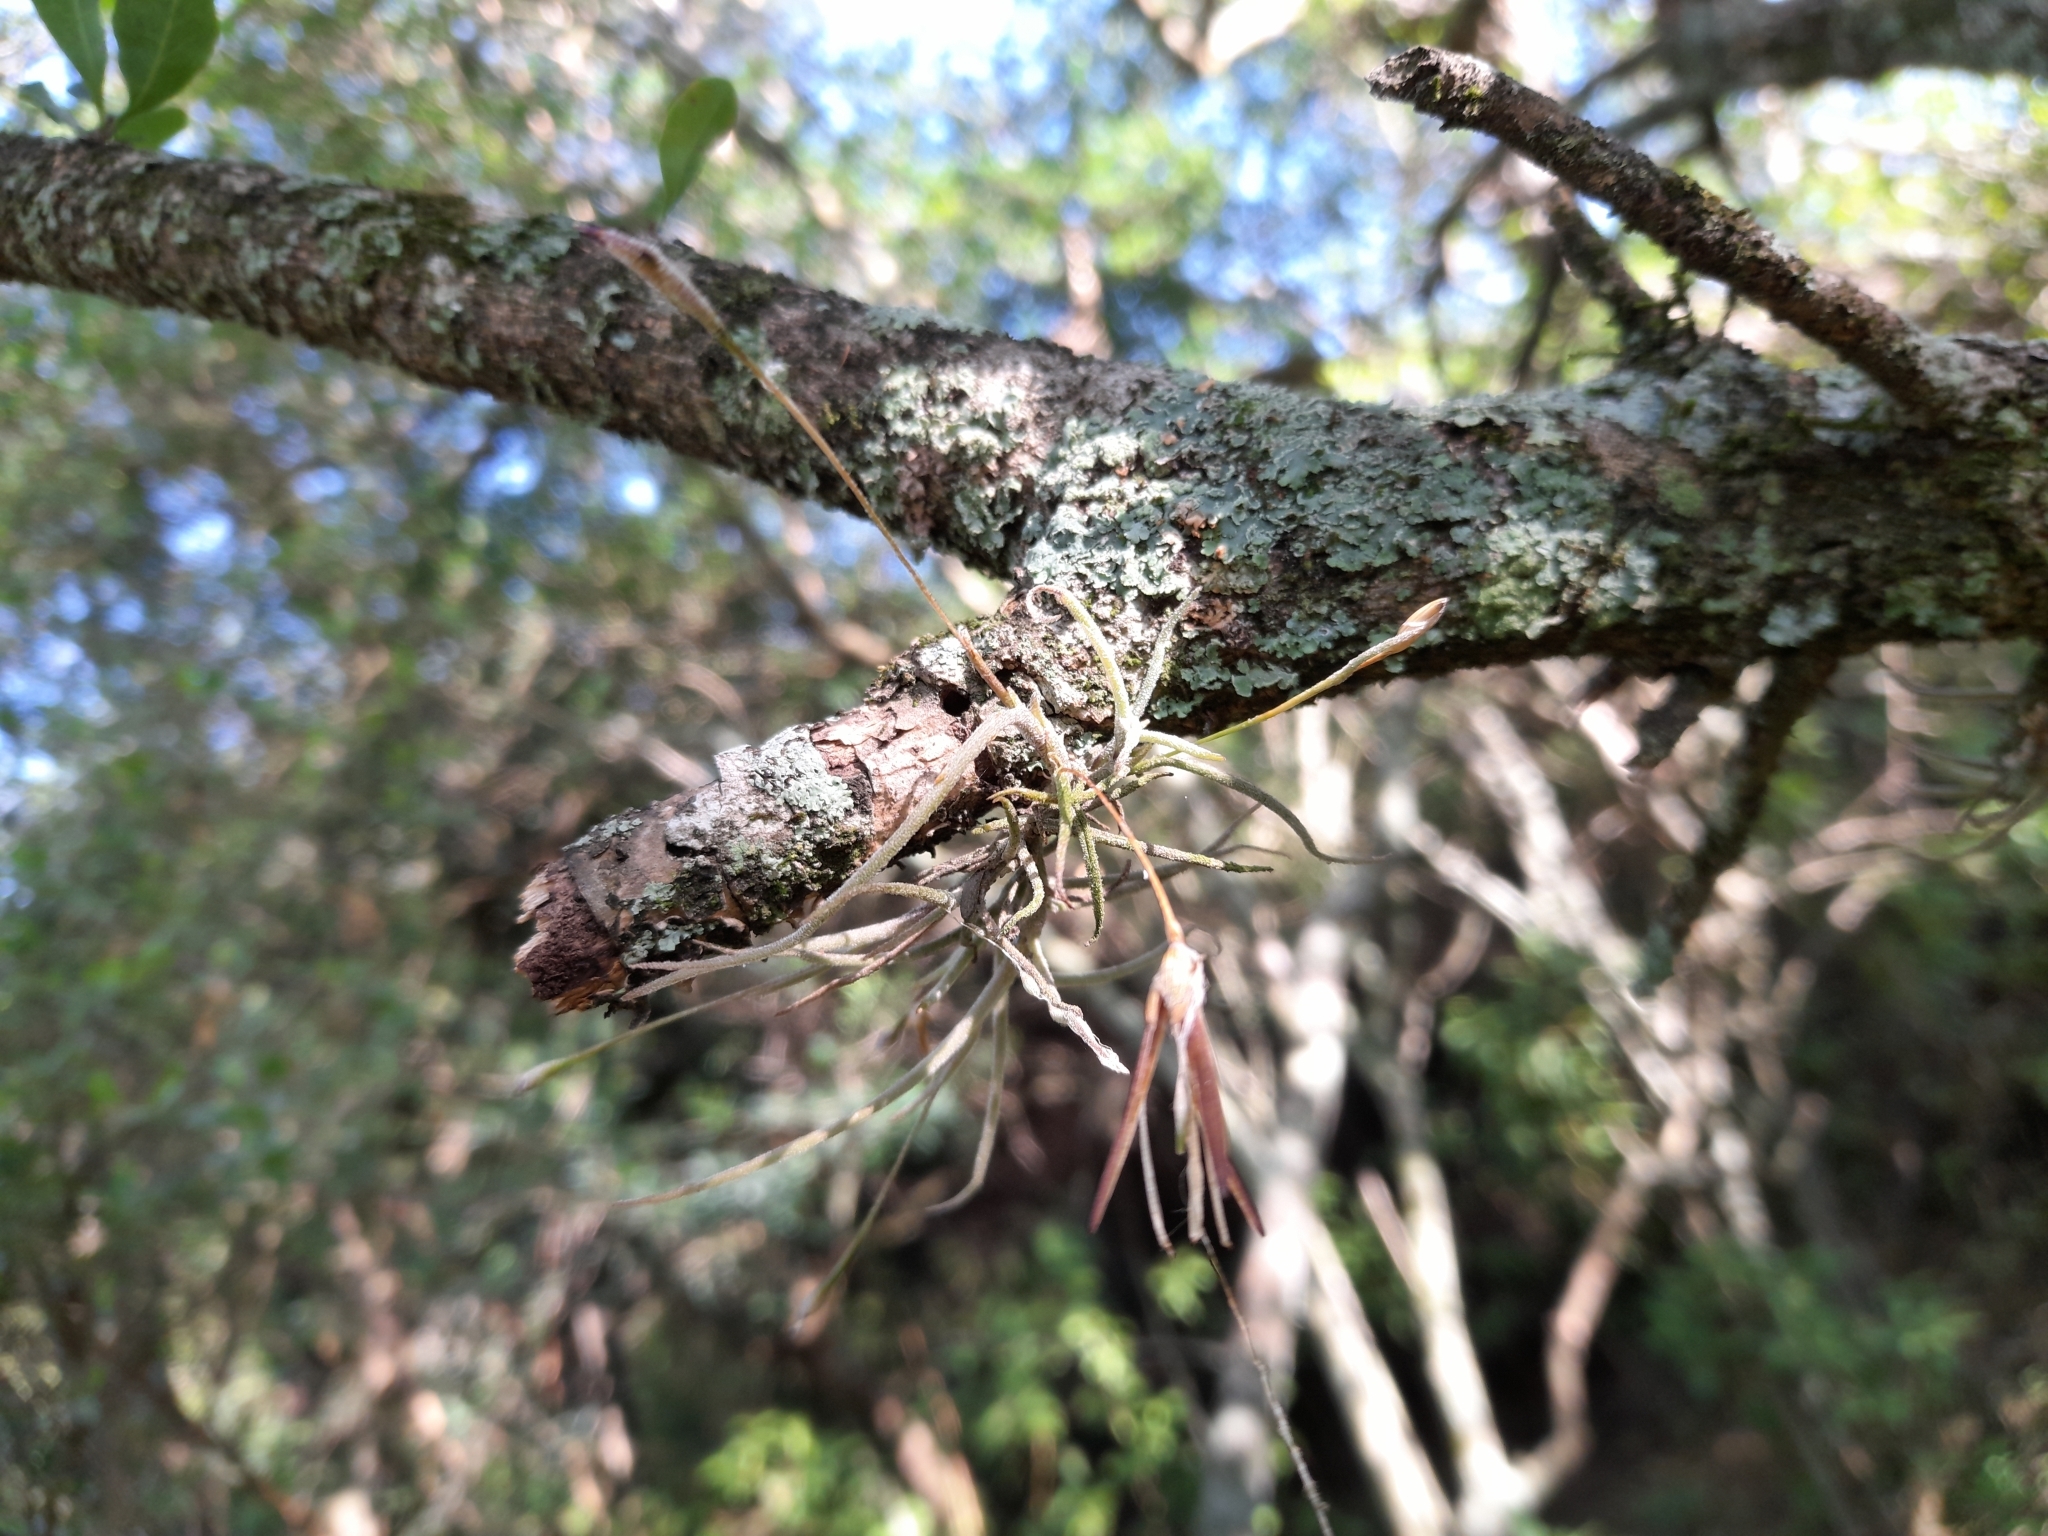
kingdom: Plantae
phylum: Tracheophyta
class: Liliopsida
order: Poales
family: Bromeliaceae
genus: Tillandsia
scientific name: Tillandsia recurvata
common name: Small ballmoss
